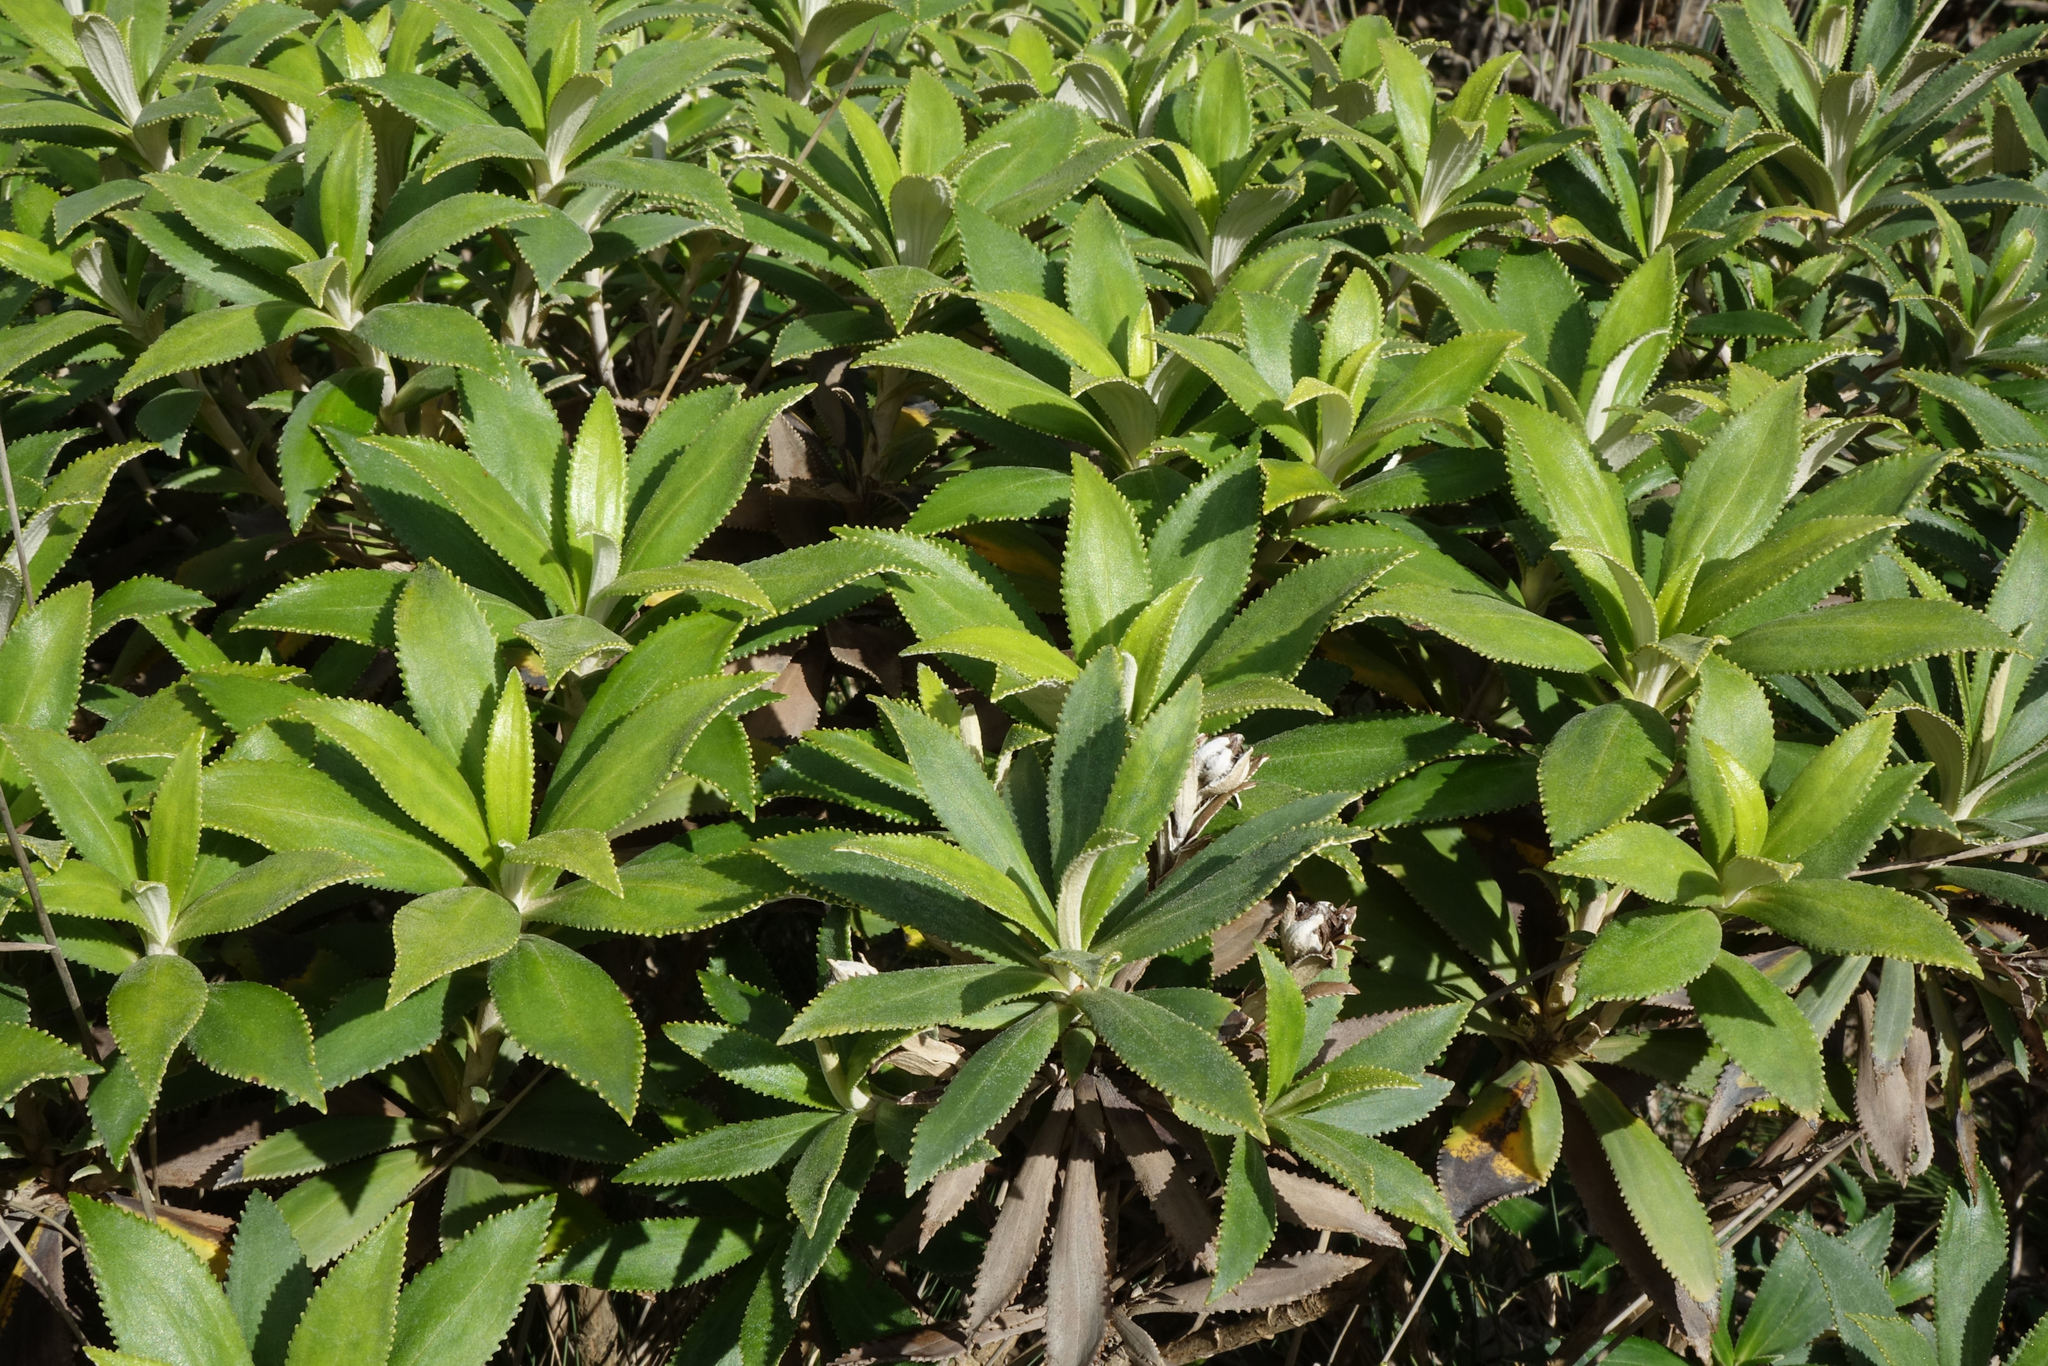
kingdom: Plantae
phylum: Tracheophyta
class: Magnoliopsida
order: Asterales
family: Asteraceae
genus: Macrolearia
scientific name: Macrolearia oporina
